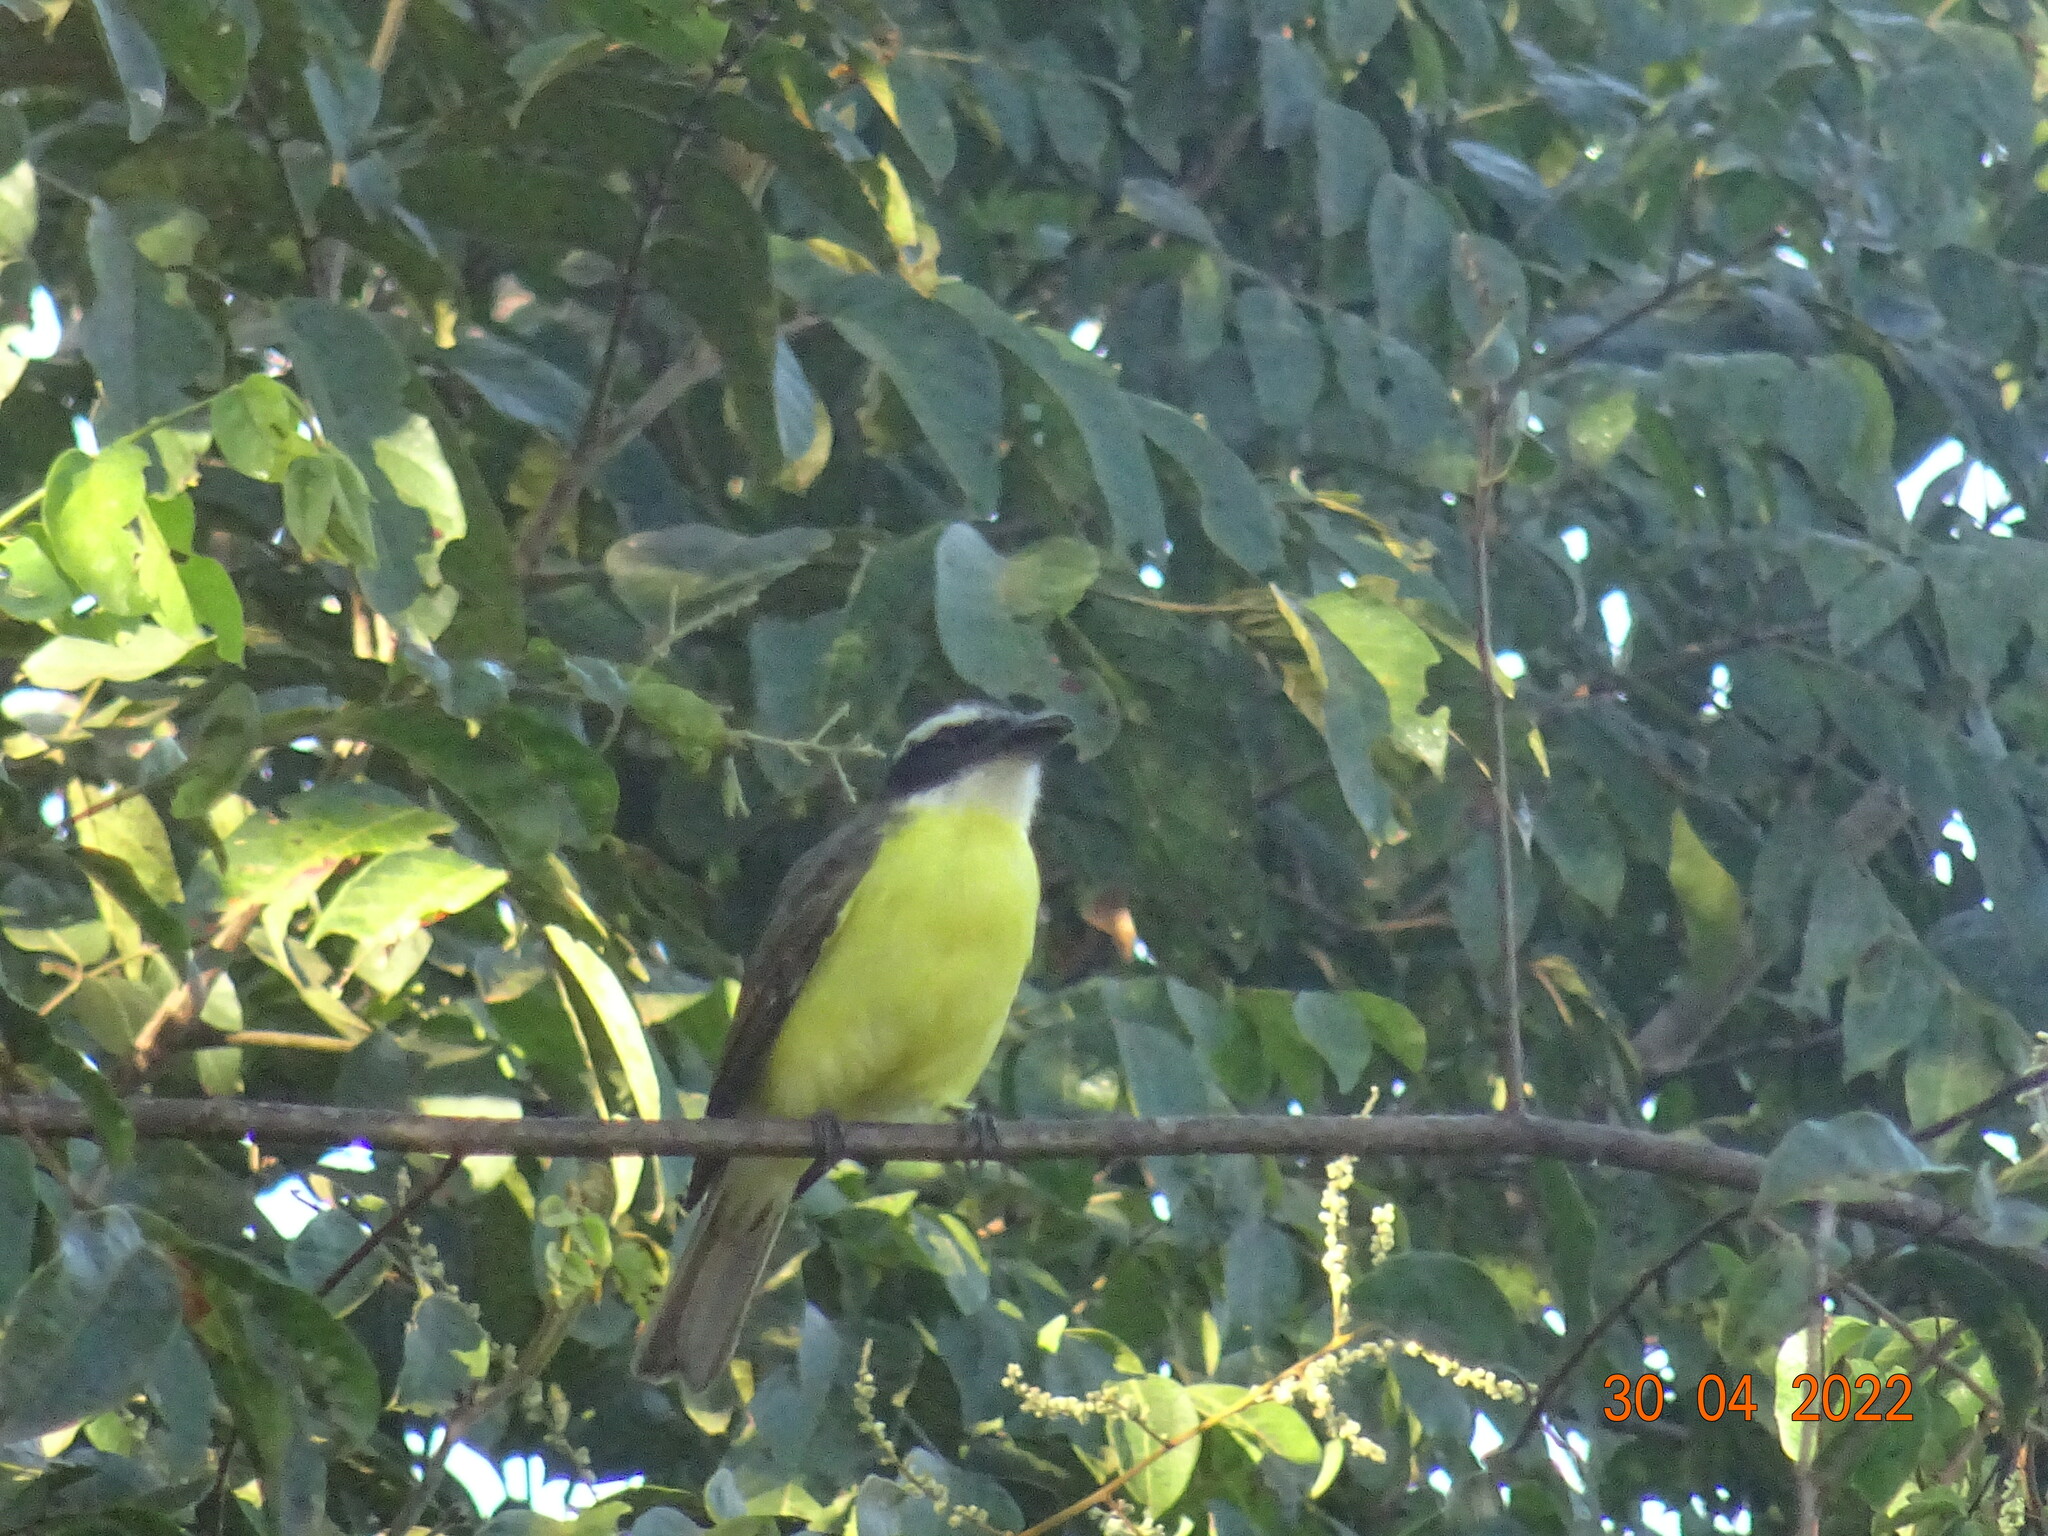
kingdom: Animalia
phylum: Chordata
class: Aves
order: Passeriformes
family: Tyrannidae
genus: Megarynchus
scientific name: Megarynchus pitangua
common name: Boat-billed flycatcher
